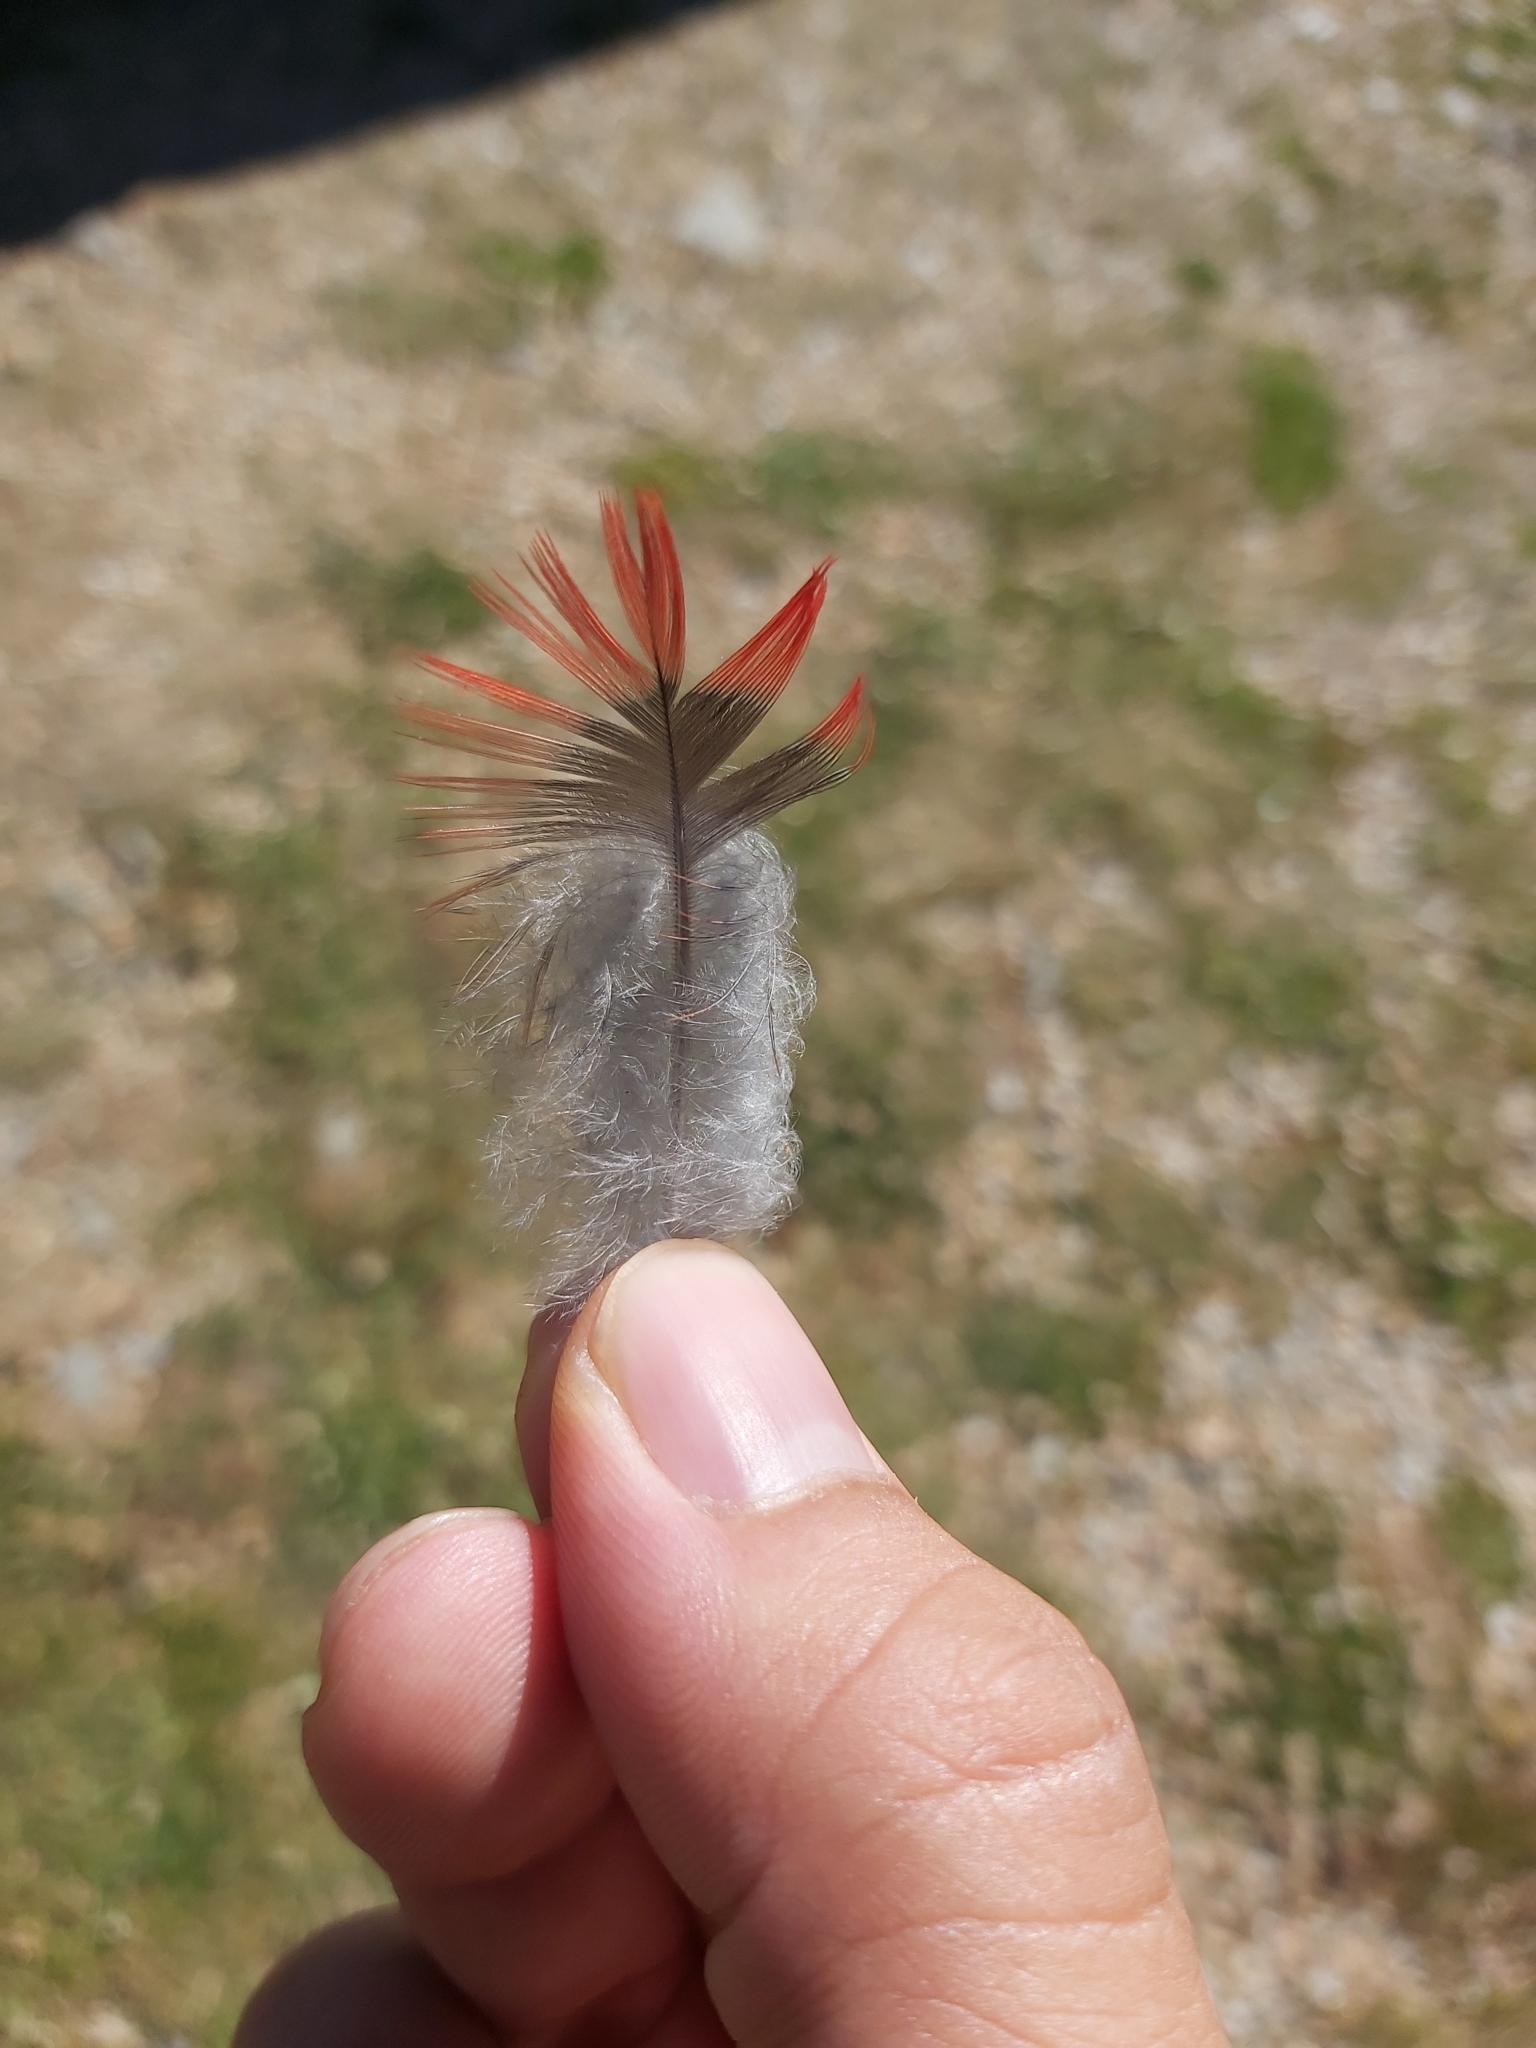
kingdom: Animalia
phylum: Chordata
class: Aves
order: Psittaciformes
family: Psittacidae
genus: Platycercus
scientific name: Platycercus elegans
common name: Crimson rosella
